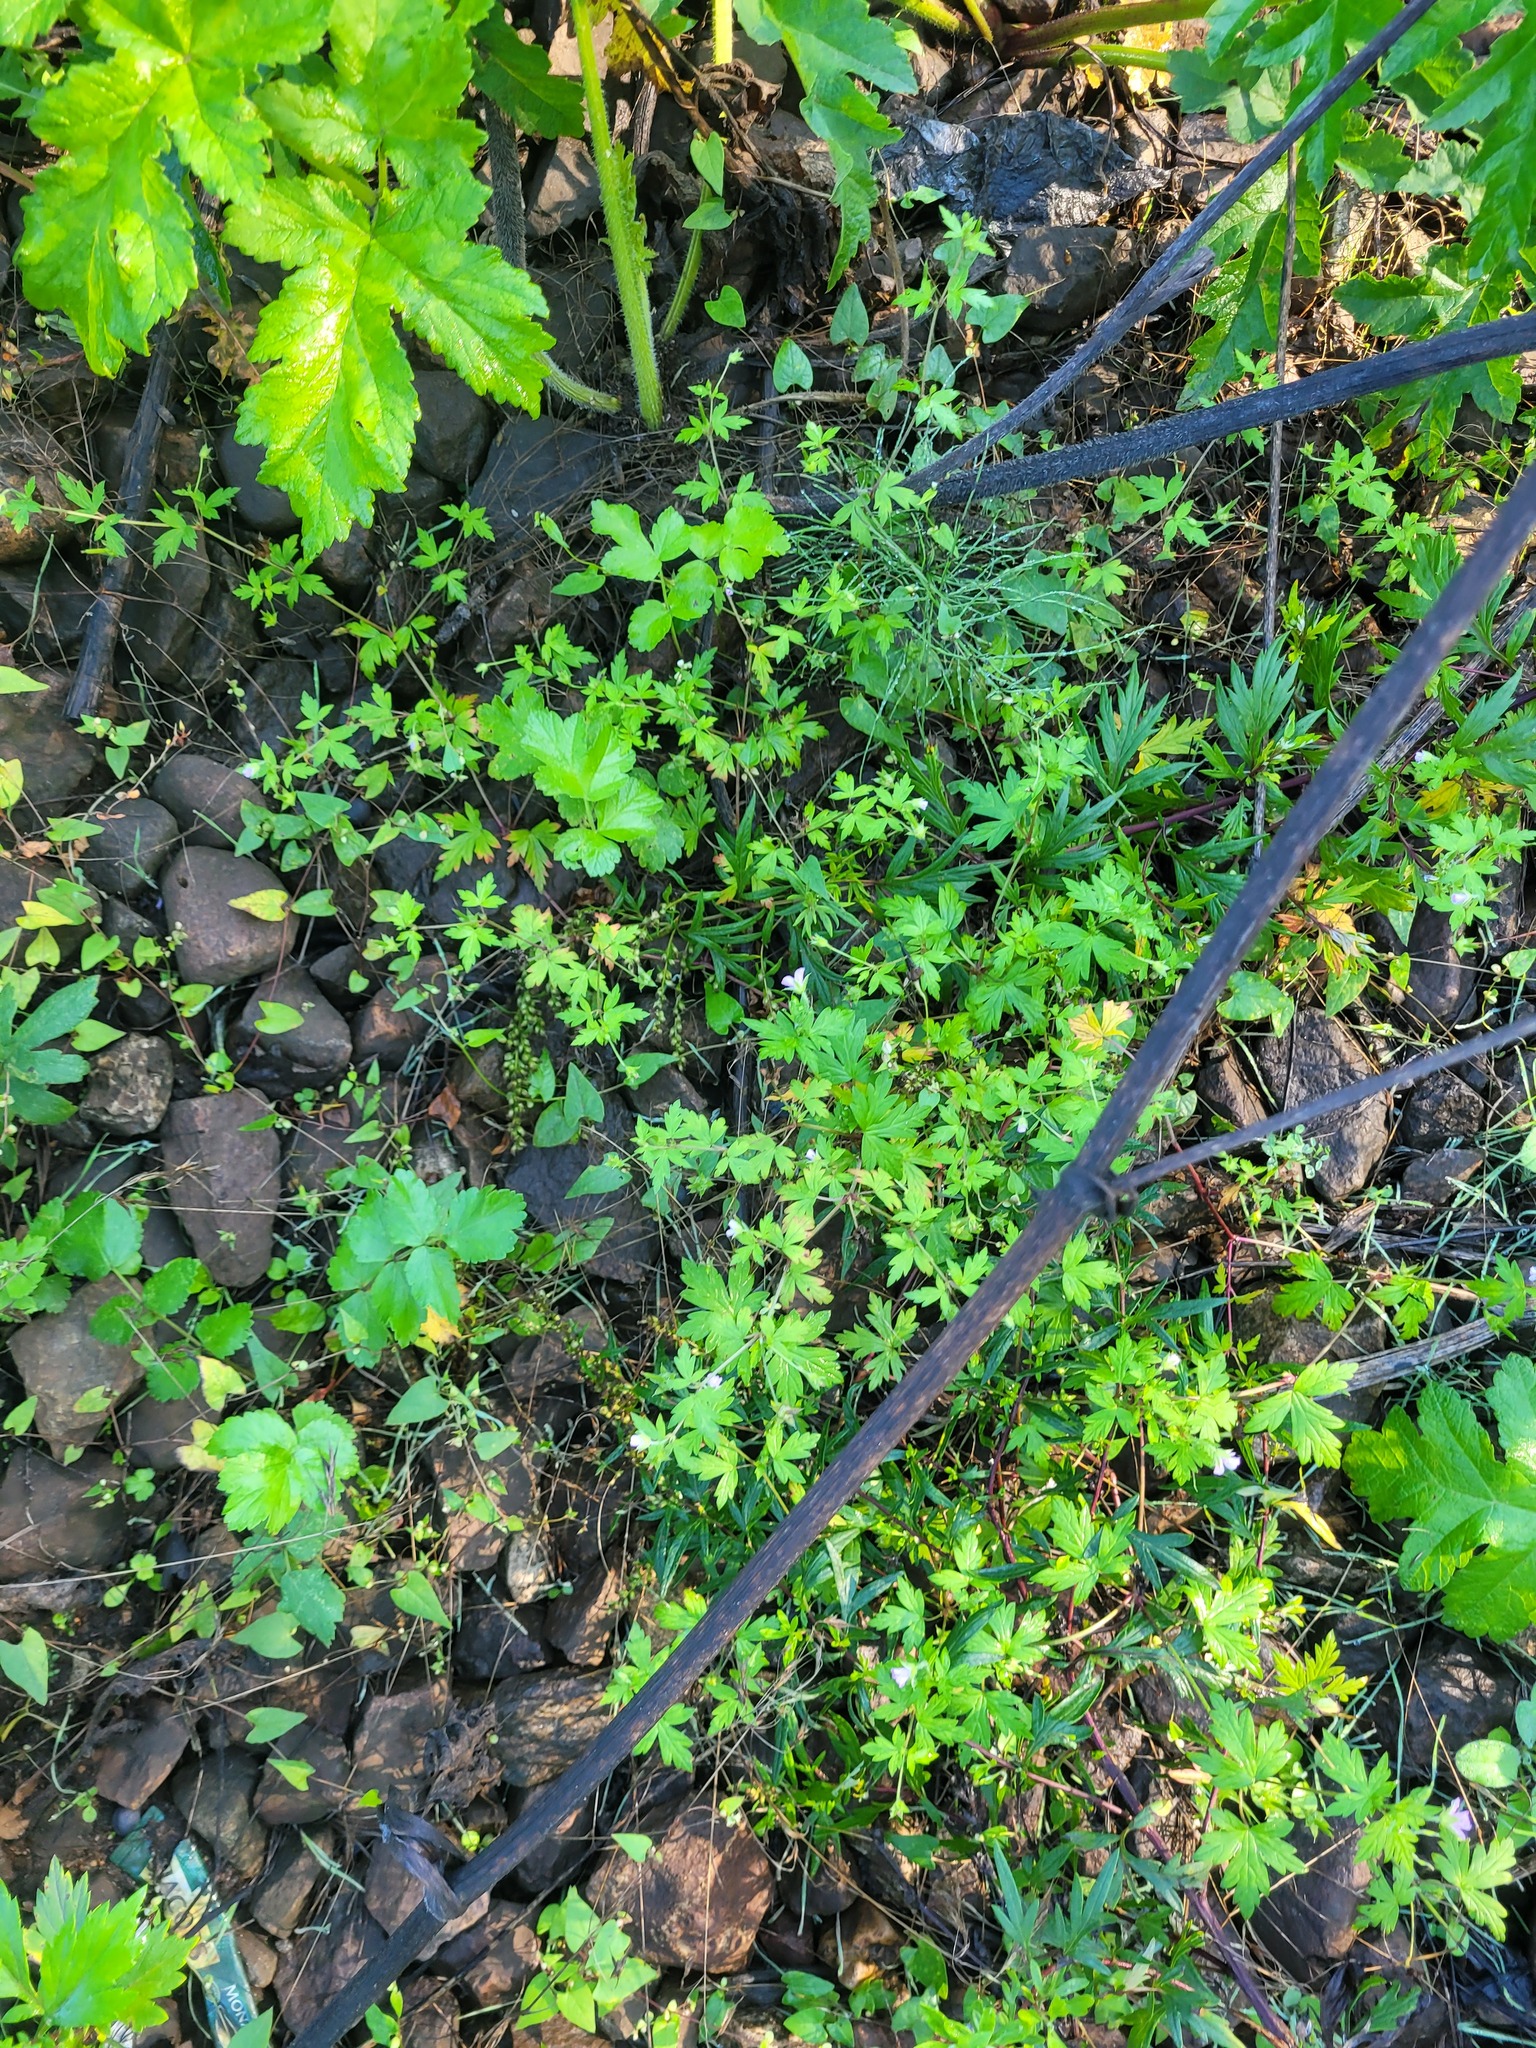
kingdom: Plantae
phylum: Tracheophyta
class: Magnoliopsida
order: Geraniales
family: Geraniaceae
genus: Geranium
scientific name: Geranium sibiricum
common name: Siberian crane's-bill
